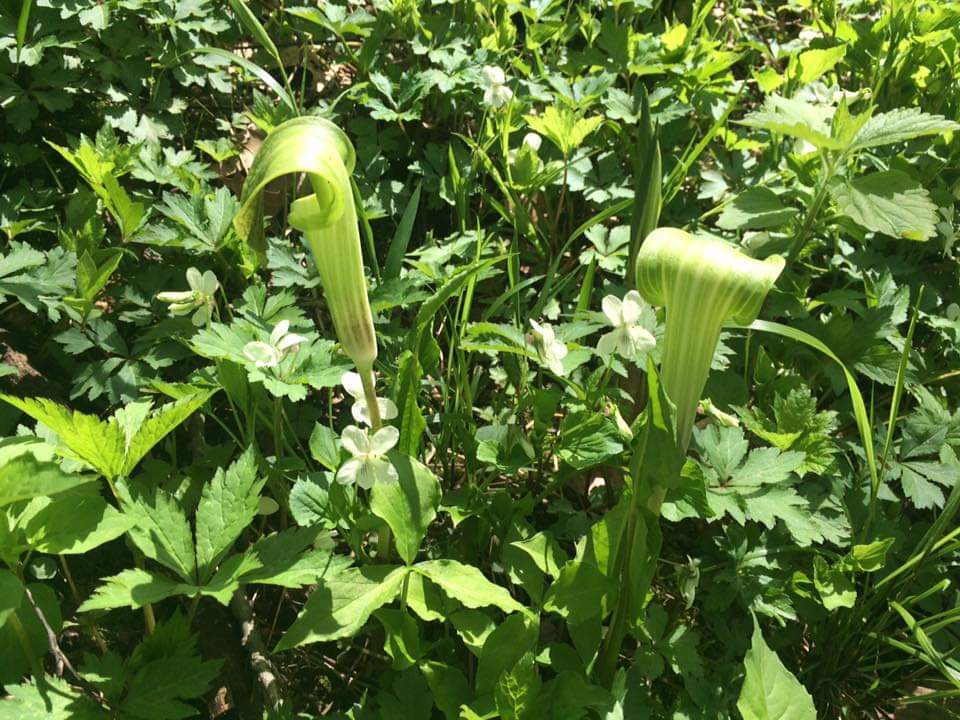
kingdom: Plantae
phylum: Tracheophyta
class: Liliopsida
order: Alismatales
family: Araceae
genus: Arisaema
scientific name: Arisaema triphyllum
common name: Jack-in-the-pulpit
